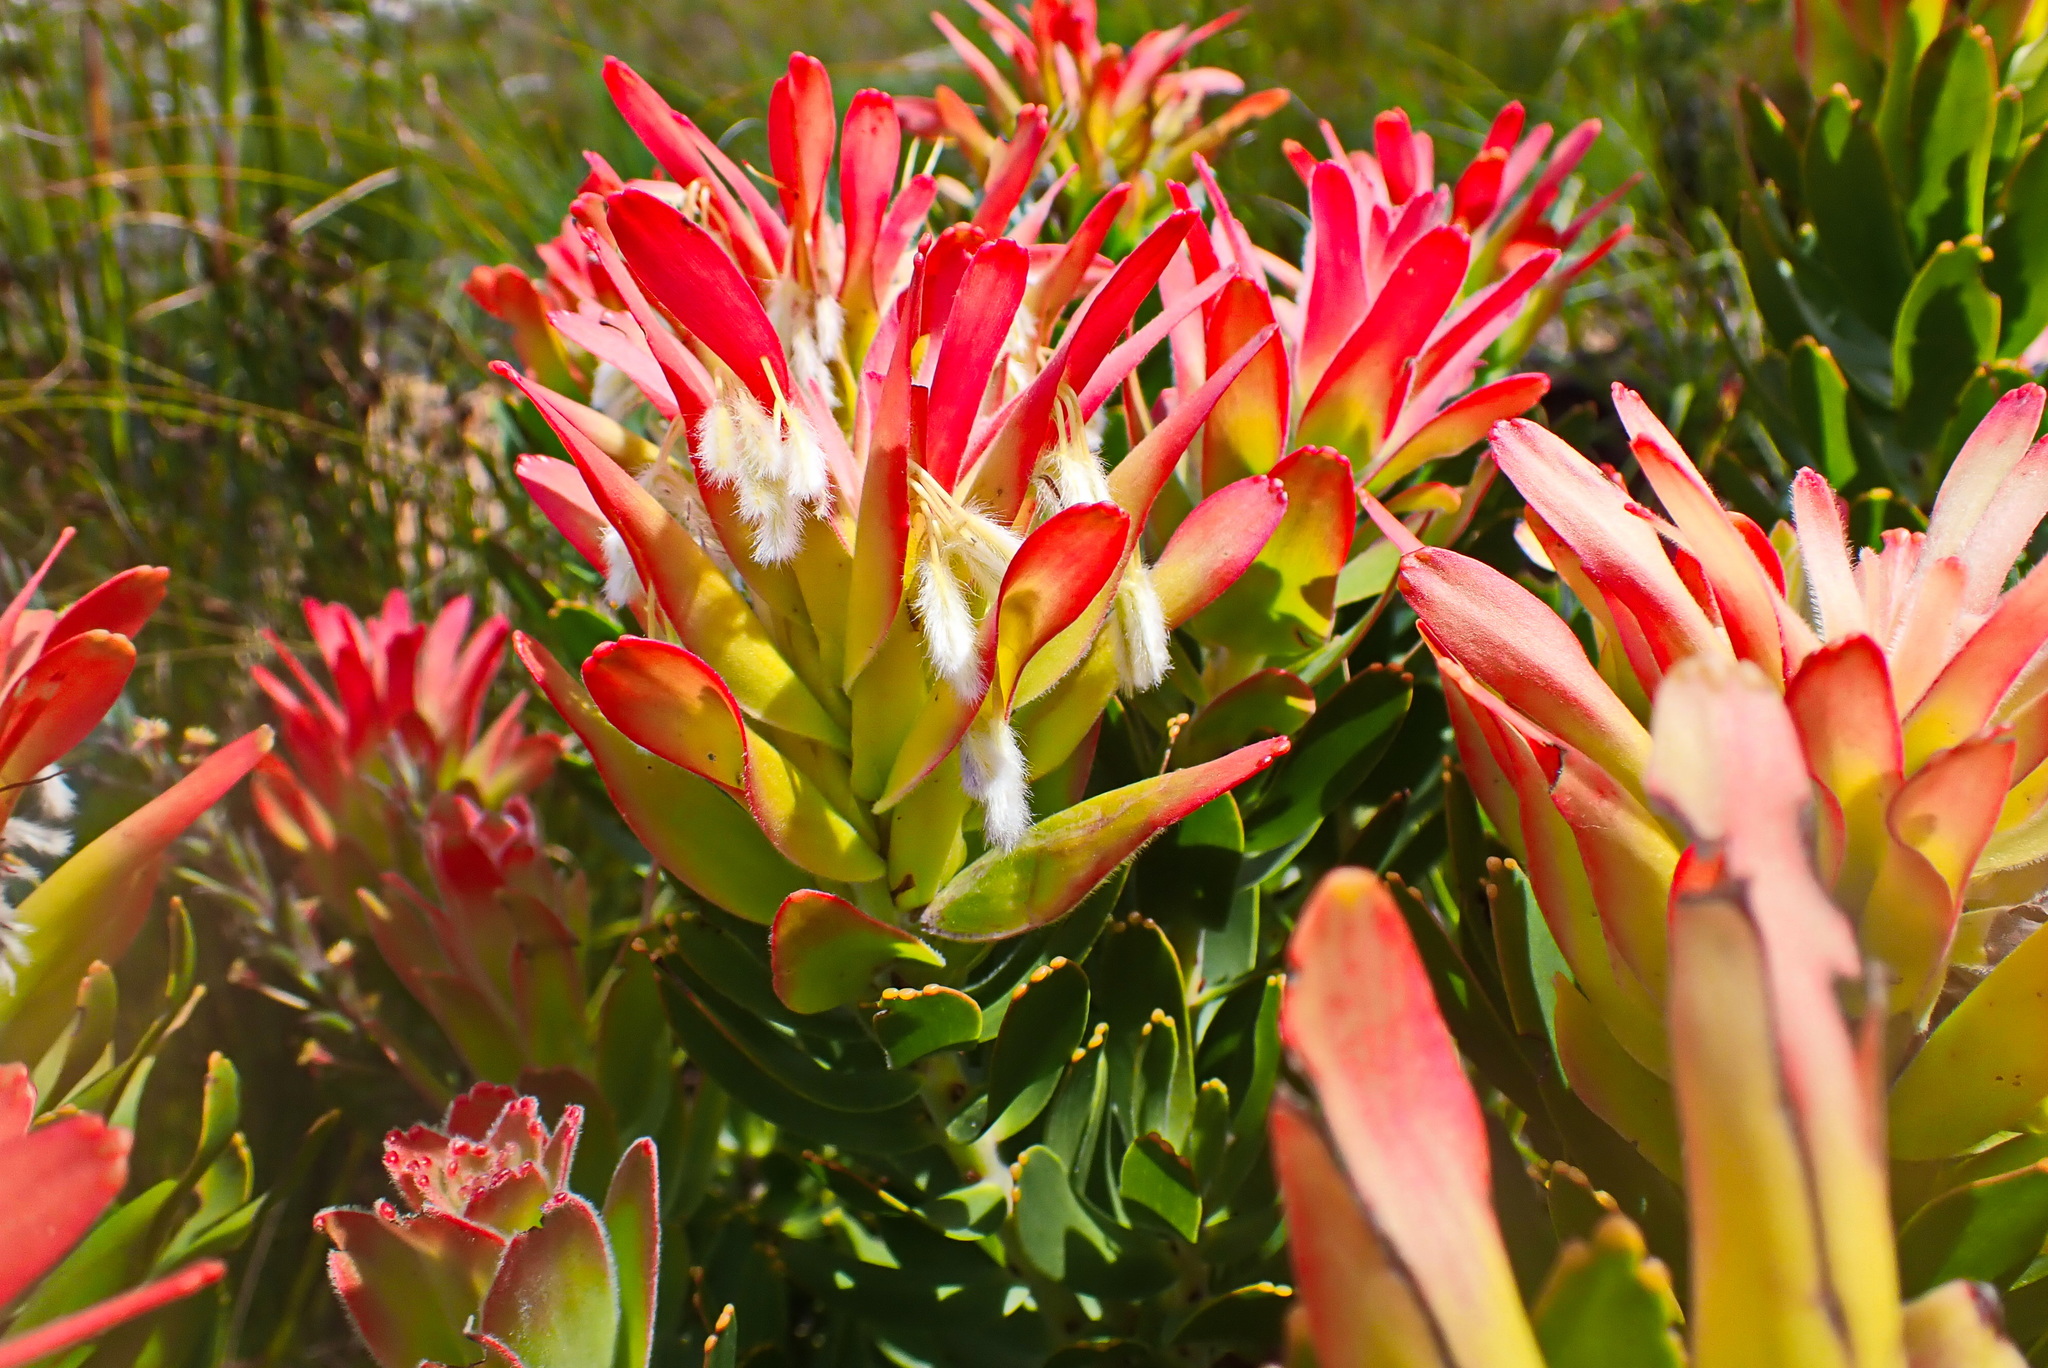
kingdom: Plantae
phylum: Tracheophyta
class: Magnoliopsida
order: Proteales
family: Proteaceae
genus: Mimetes
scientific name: Mimetes cucullatus
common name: Common pagoda
